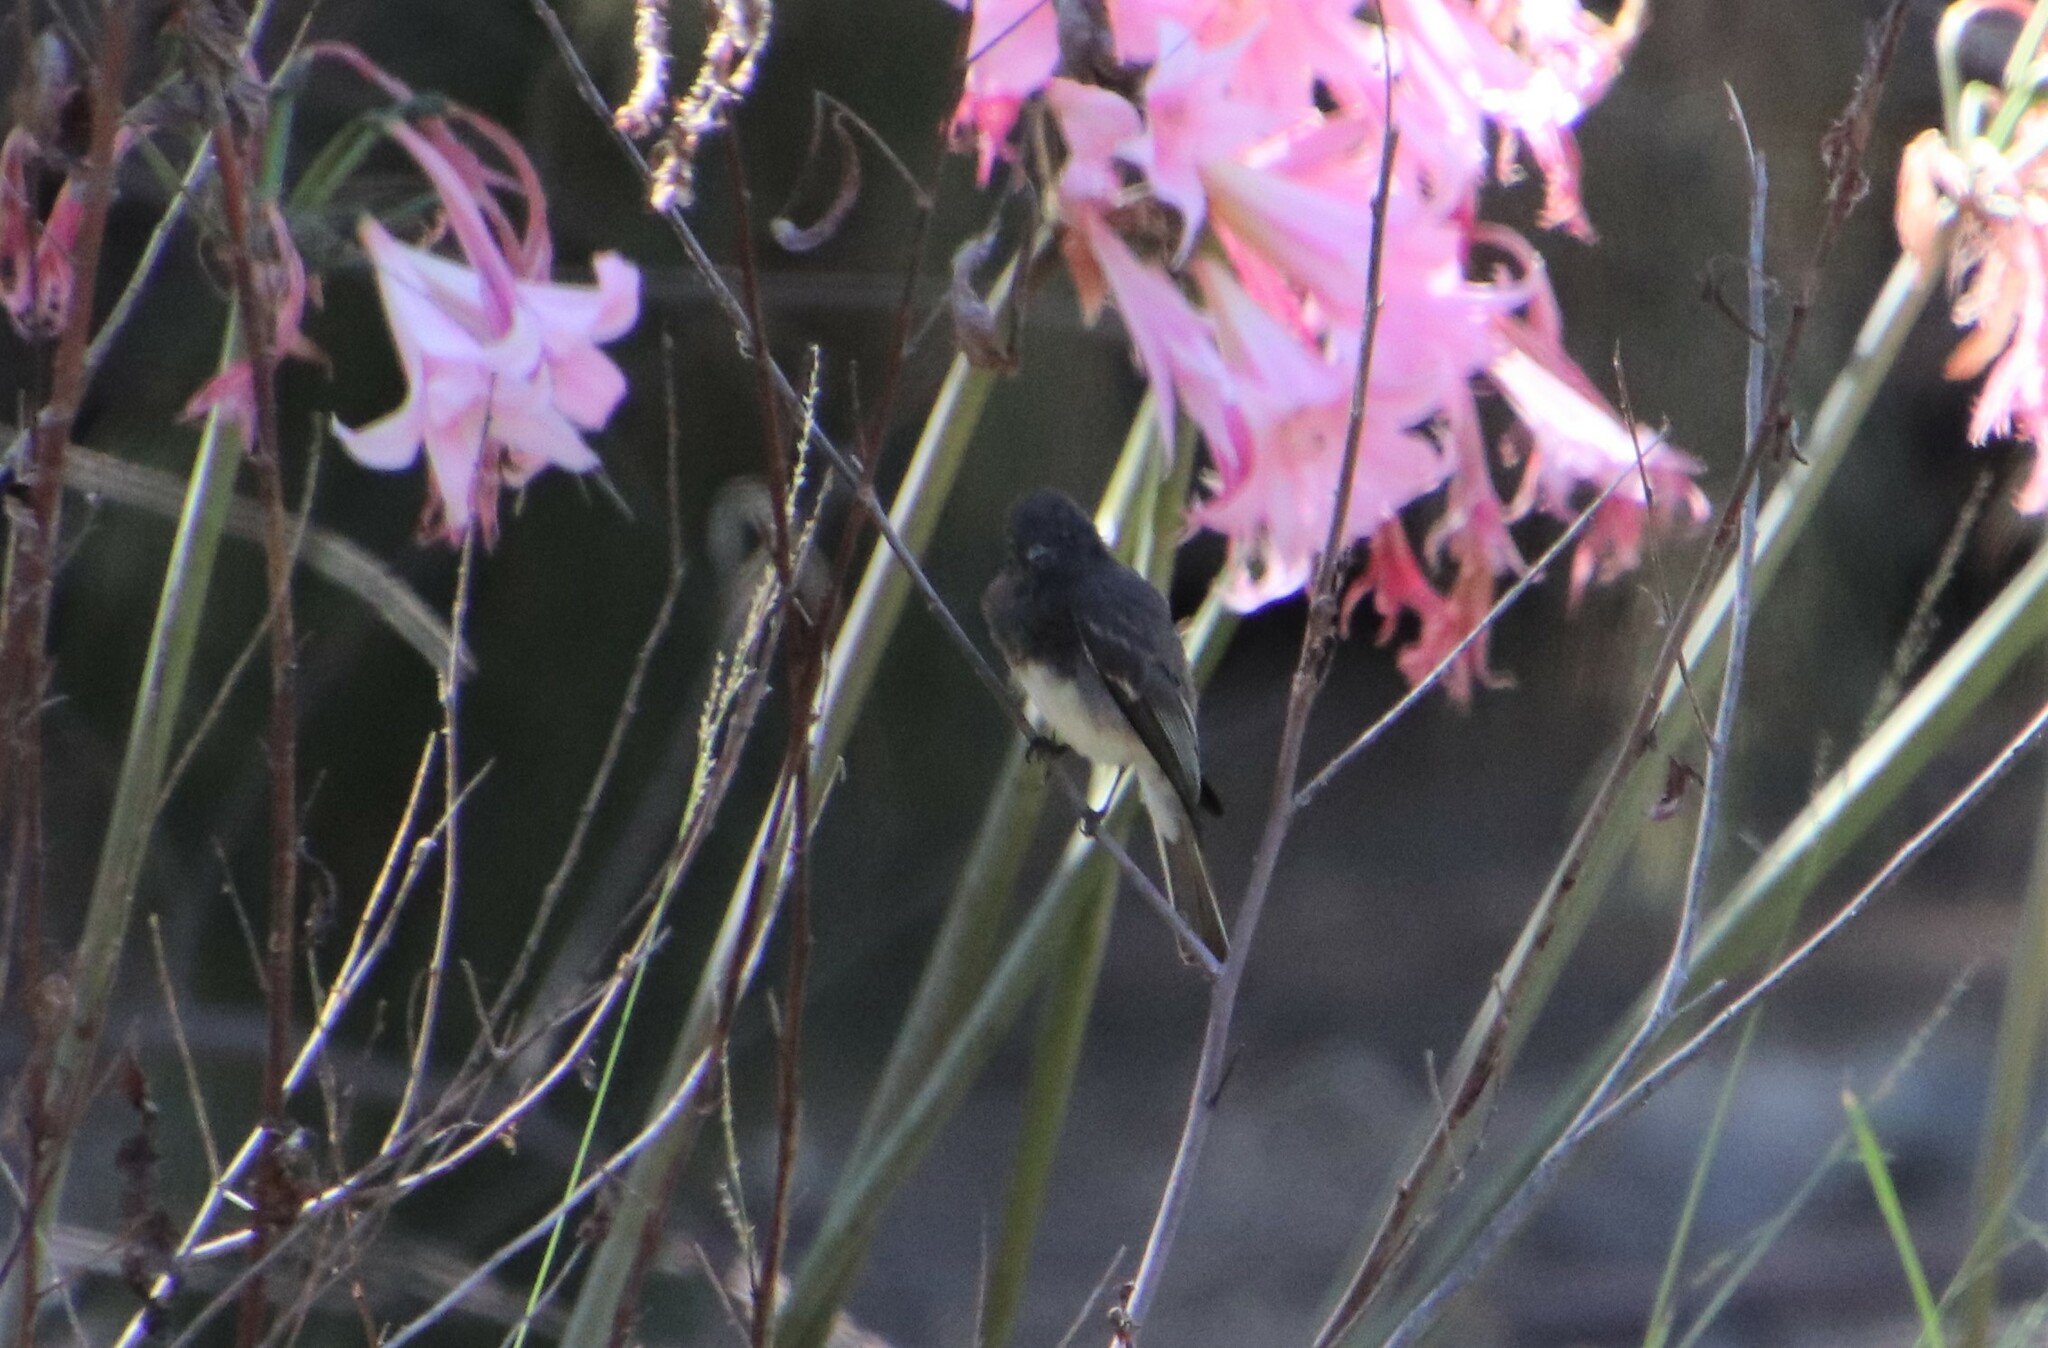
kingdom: Animalia
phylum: Chordata
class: Aves
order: Passeriformes
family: Tyrannidae
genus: Sayornis
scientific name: Sayornis nigricans
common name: Black phoebe
